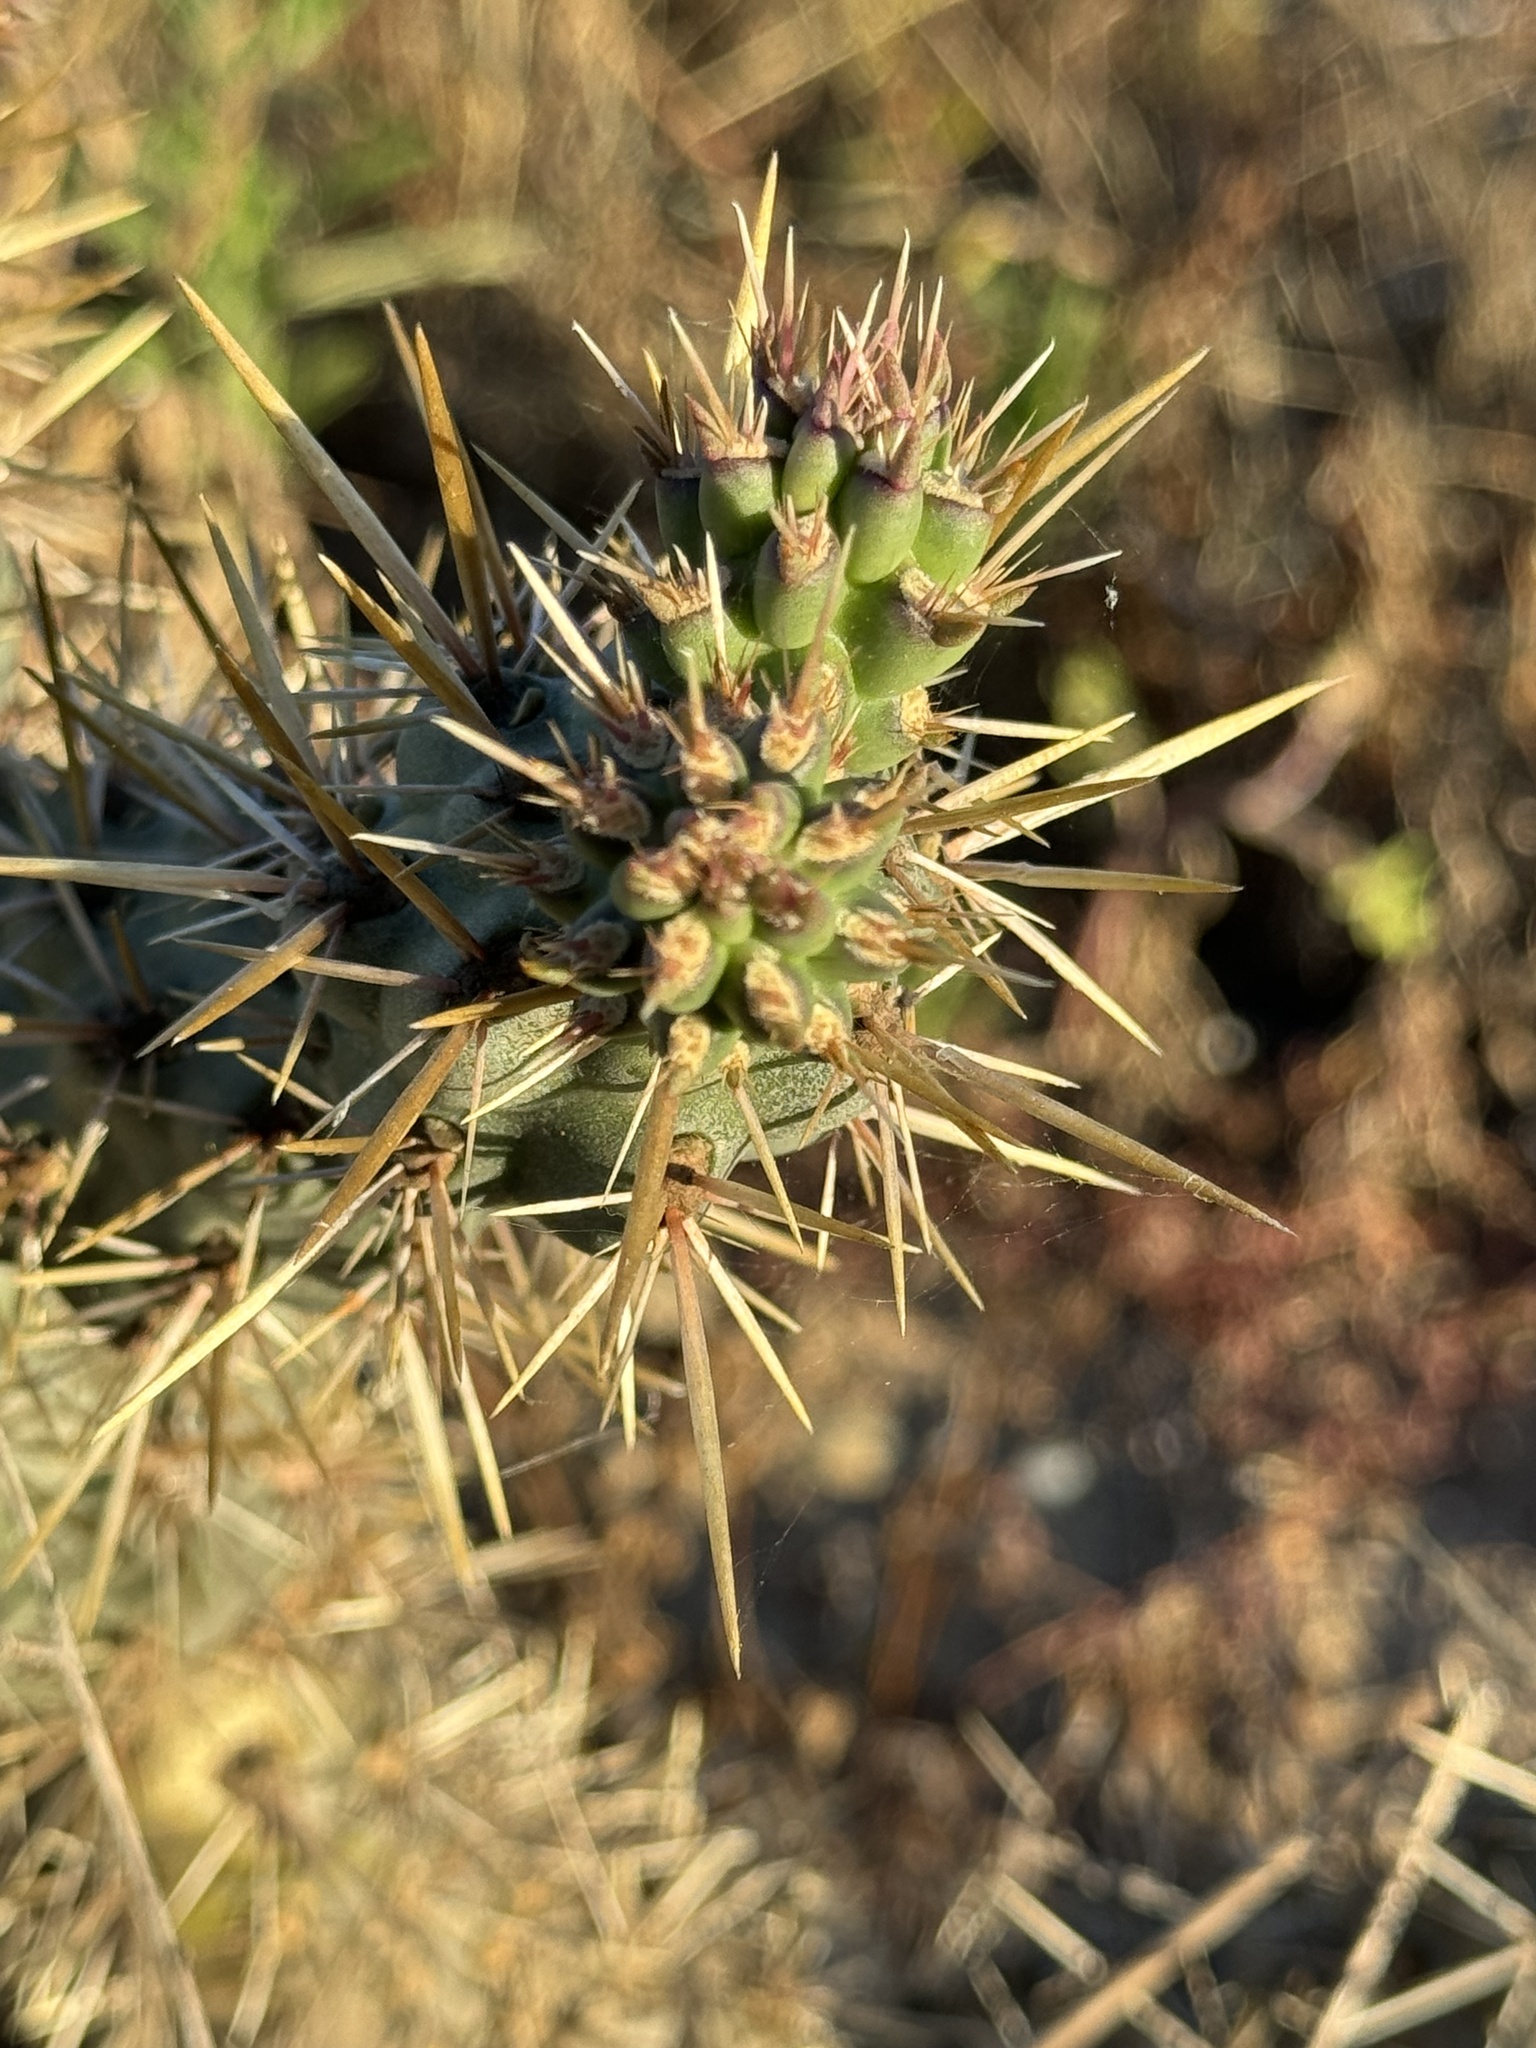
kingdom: Plantae
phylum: Tracheophyta
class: Magnoliopsida
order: Caryophyllales
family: Cactaceae
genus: Cylindropuntia
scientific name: Cylindropuntia prolifera
